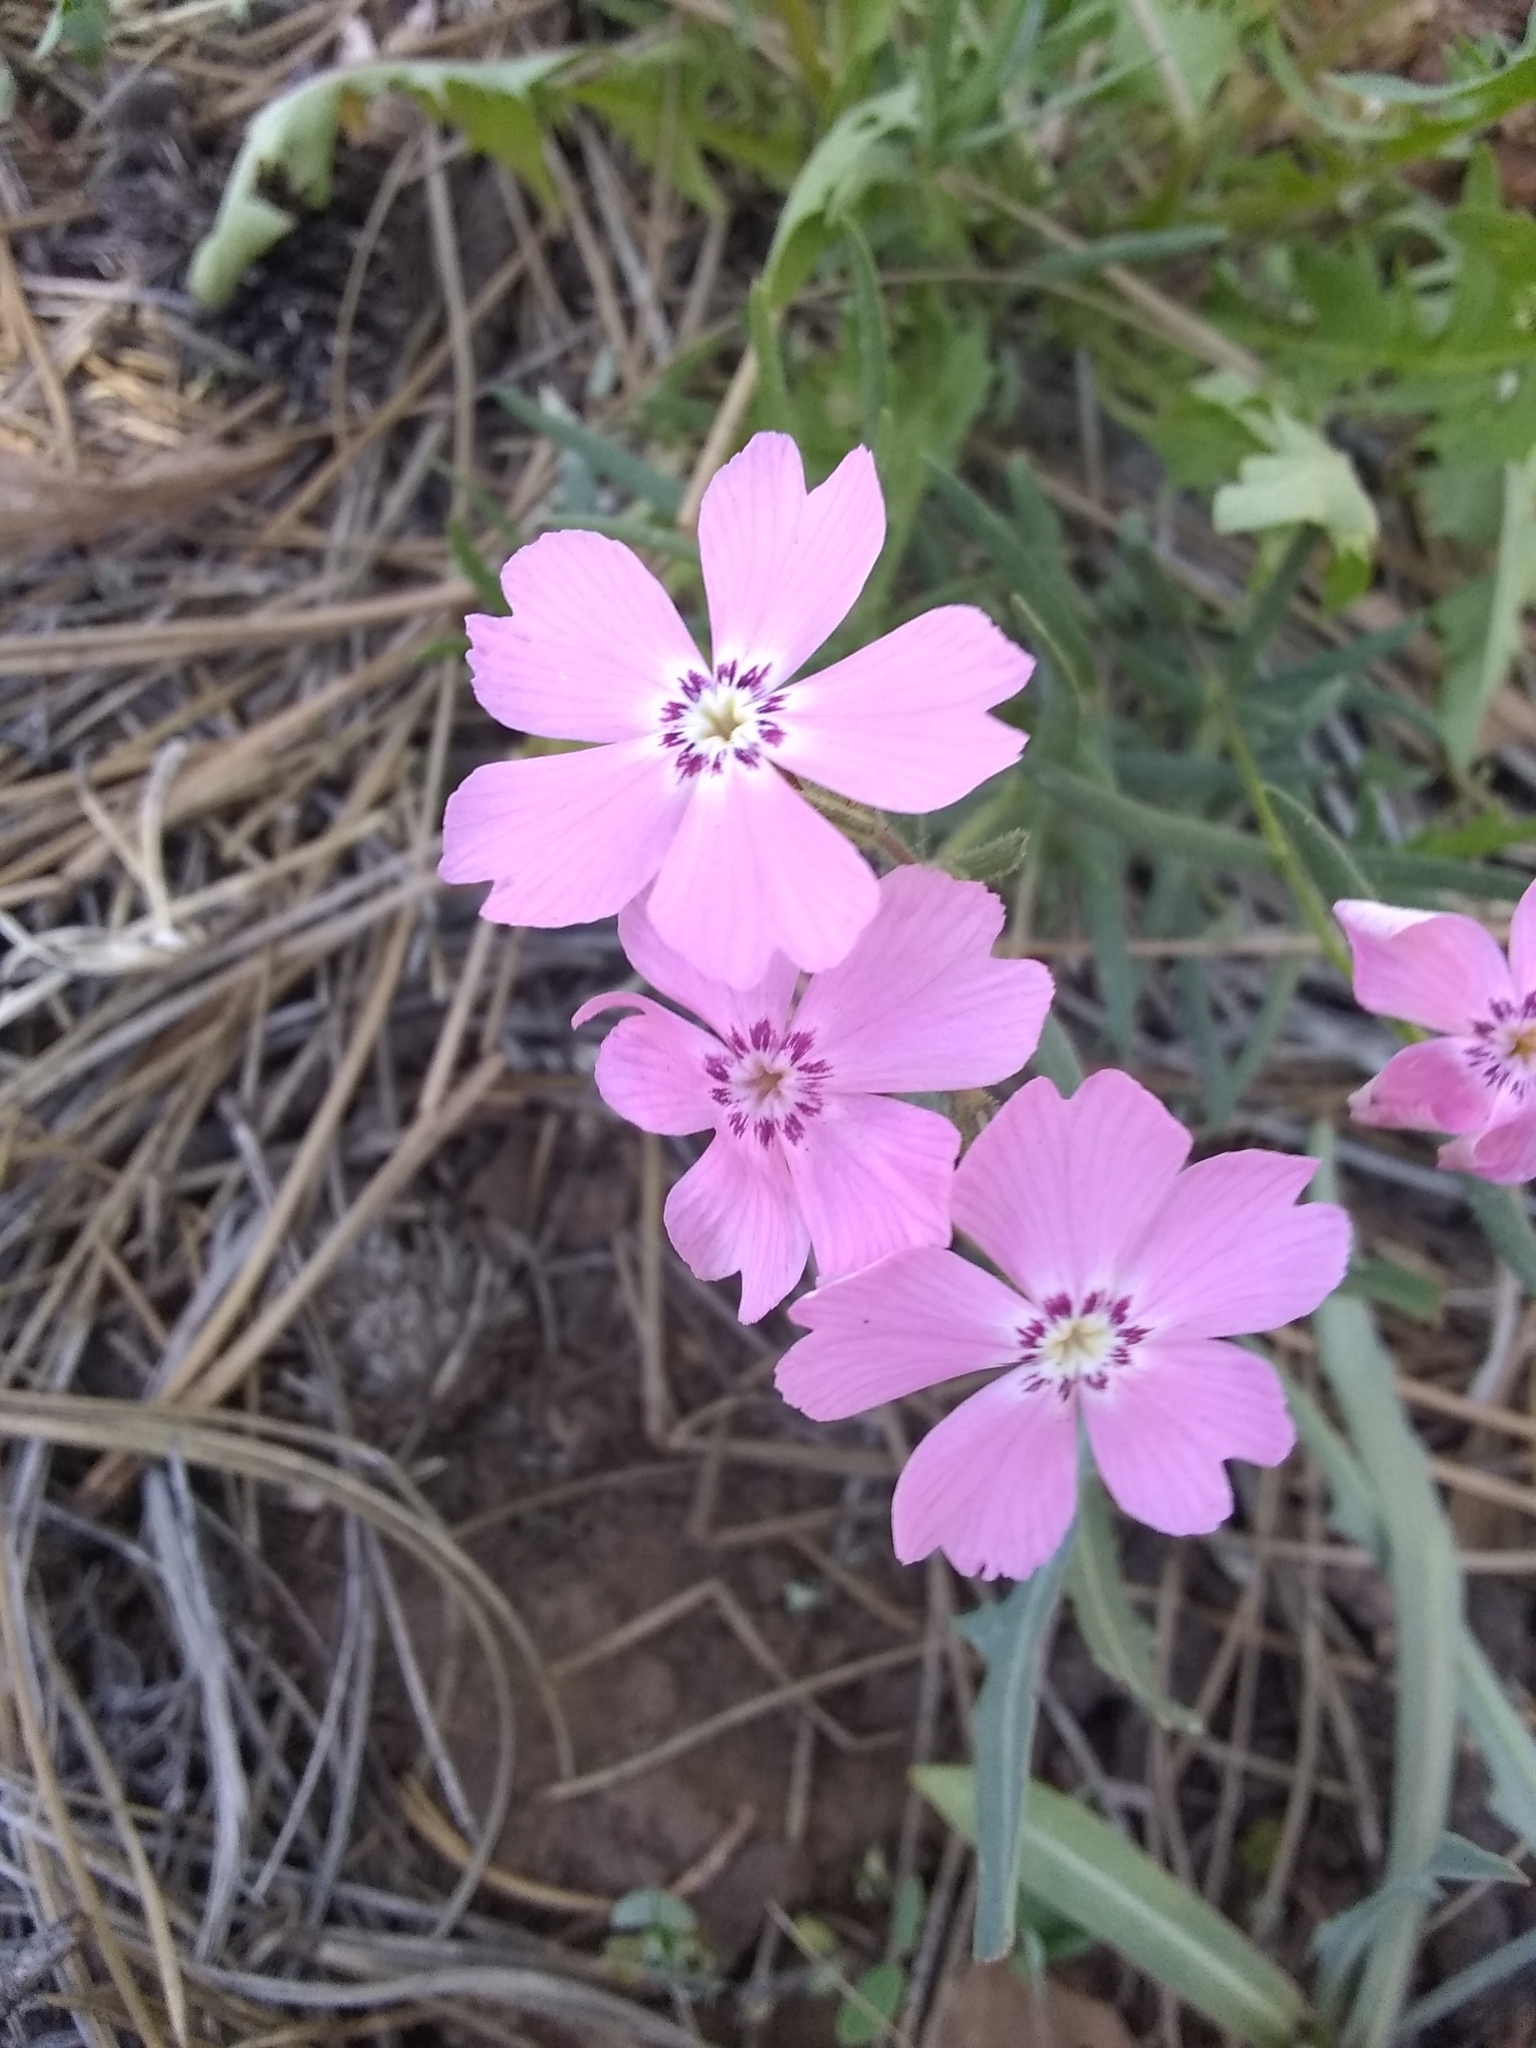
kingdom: Plantae
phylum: Tracheophyta
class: Magnoliopsida
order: Ericales
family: Polemoniaceae
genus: Phlox
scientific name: Phlox woodhousei
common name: Star phlox
